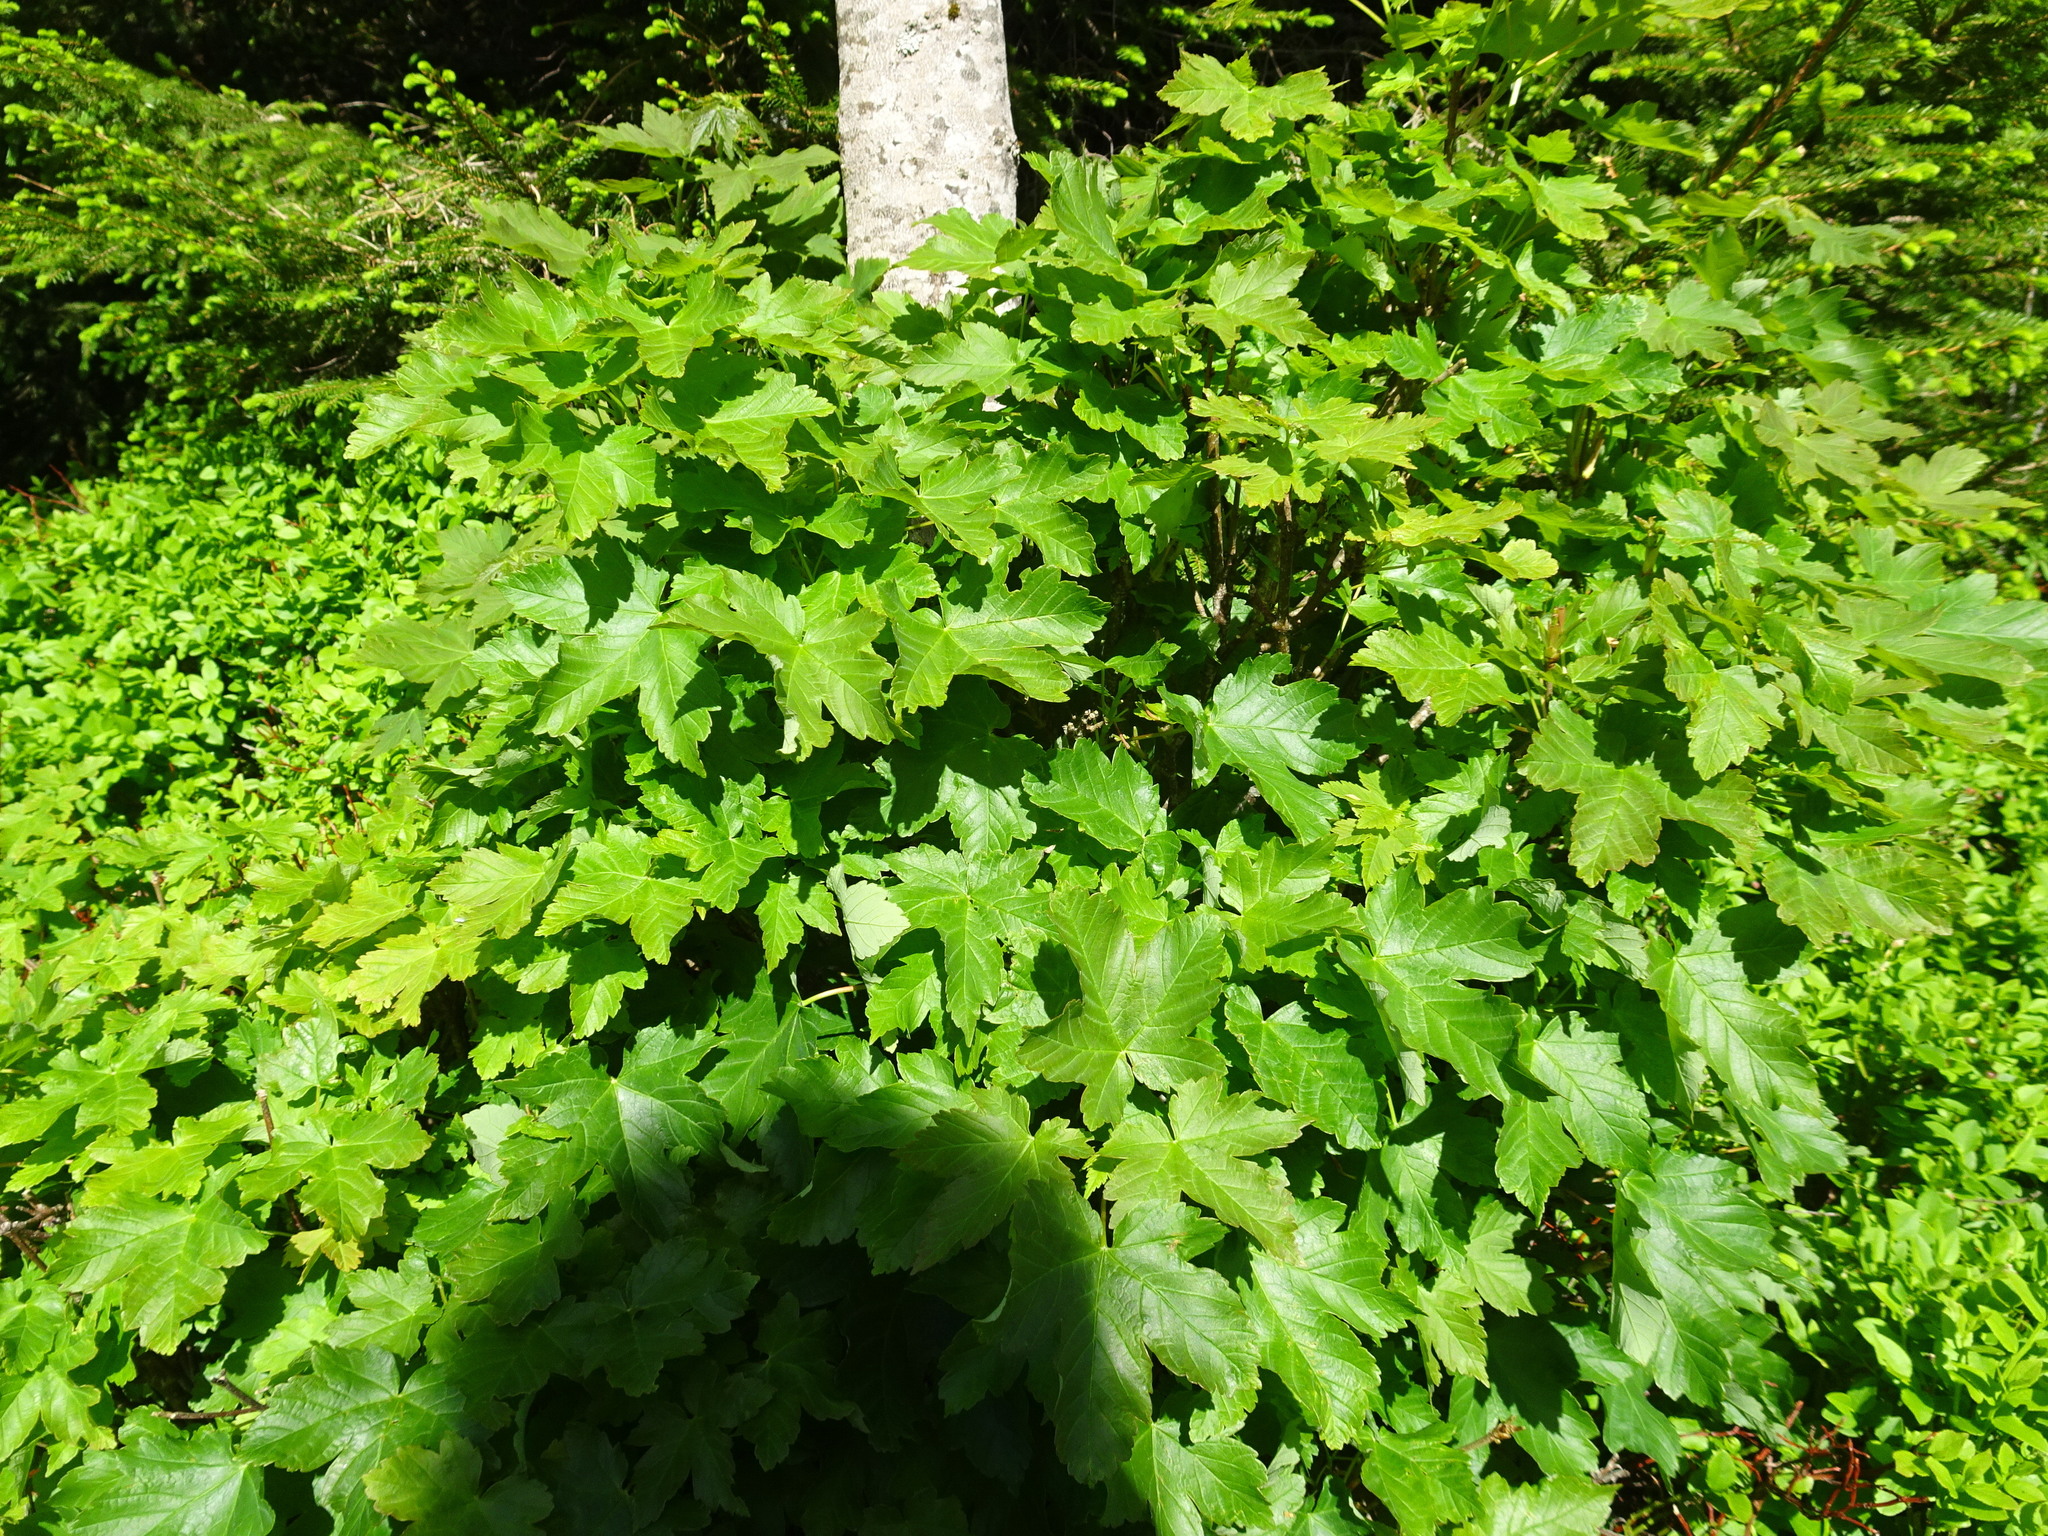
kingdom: Plantae
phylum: Tracheophyta
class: Magnoliopsida
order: Sapindales
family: Sapindaceae
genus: Acer
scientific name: Acer pseudoplatanus
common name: Sycamore
